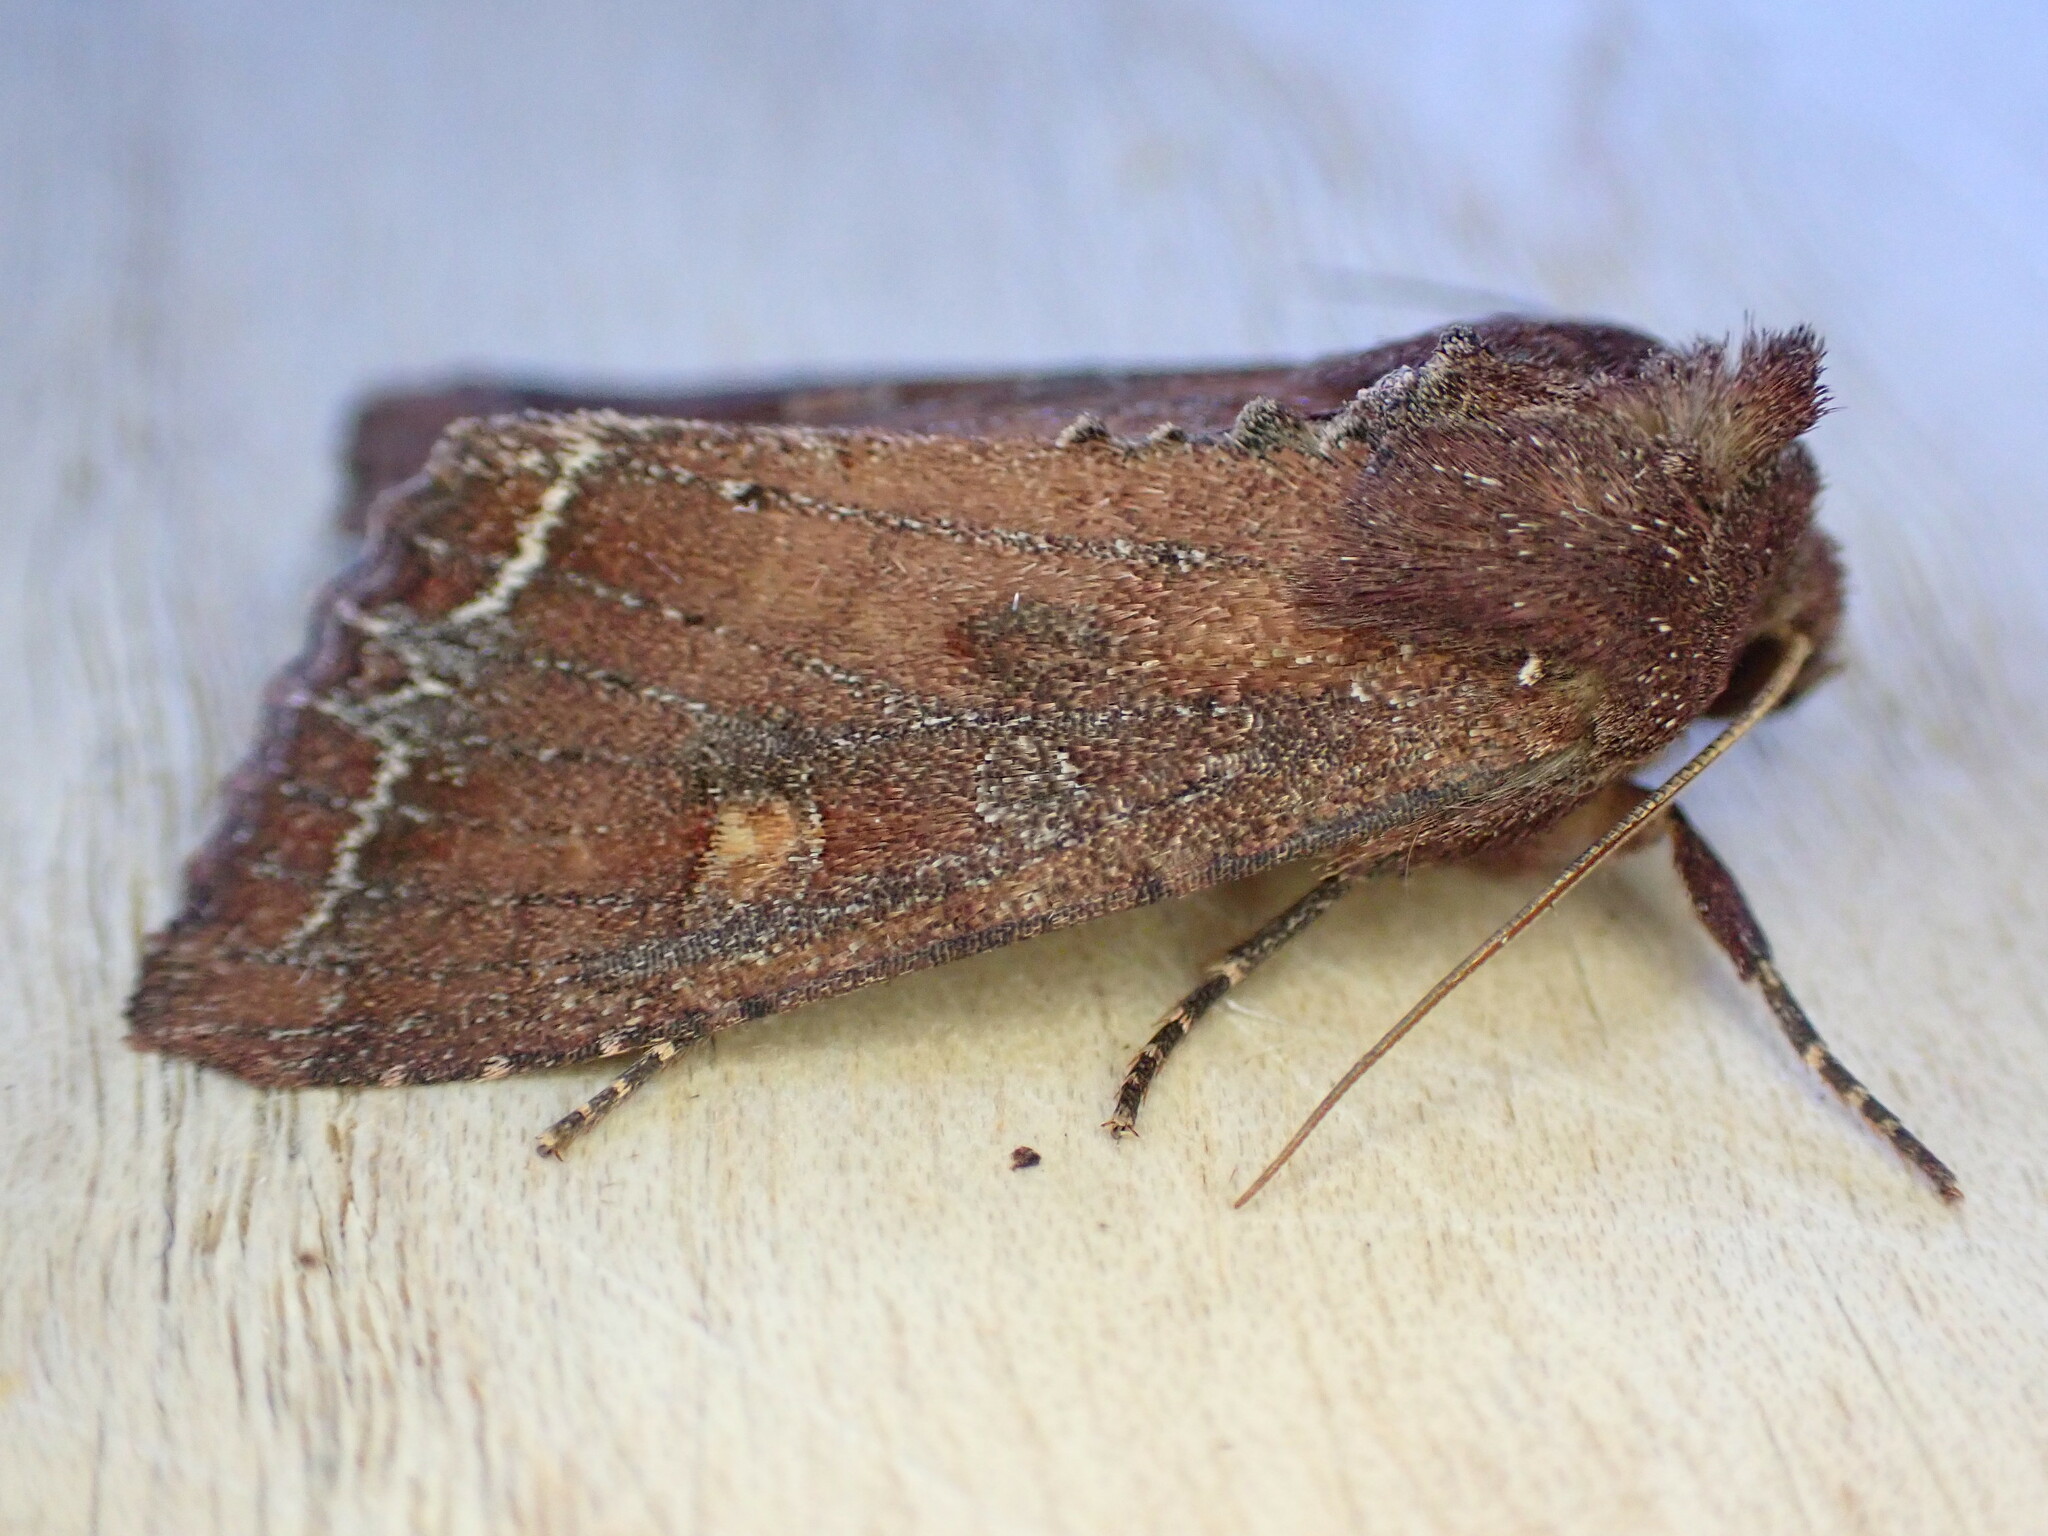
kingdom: Animalia
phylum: Arthropoda
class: Insecta
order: Lepidoptera
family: Noctuidae
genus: Lacanobia
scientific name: Lacanobia oleracea
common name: Bright-line brown-eye
